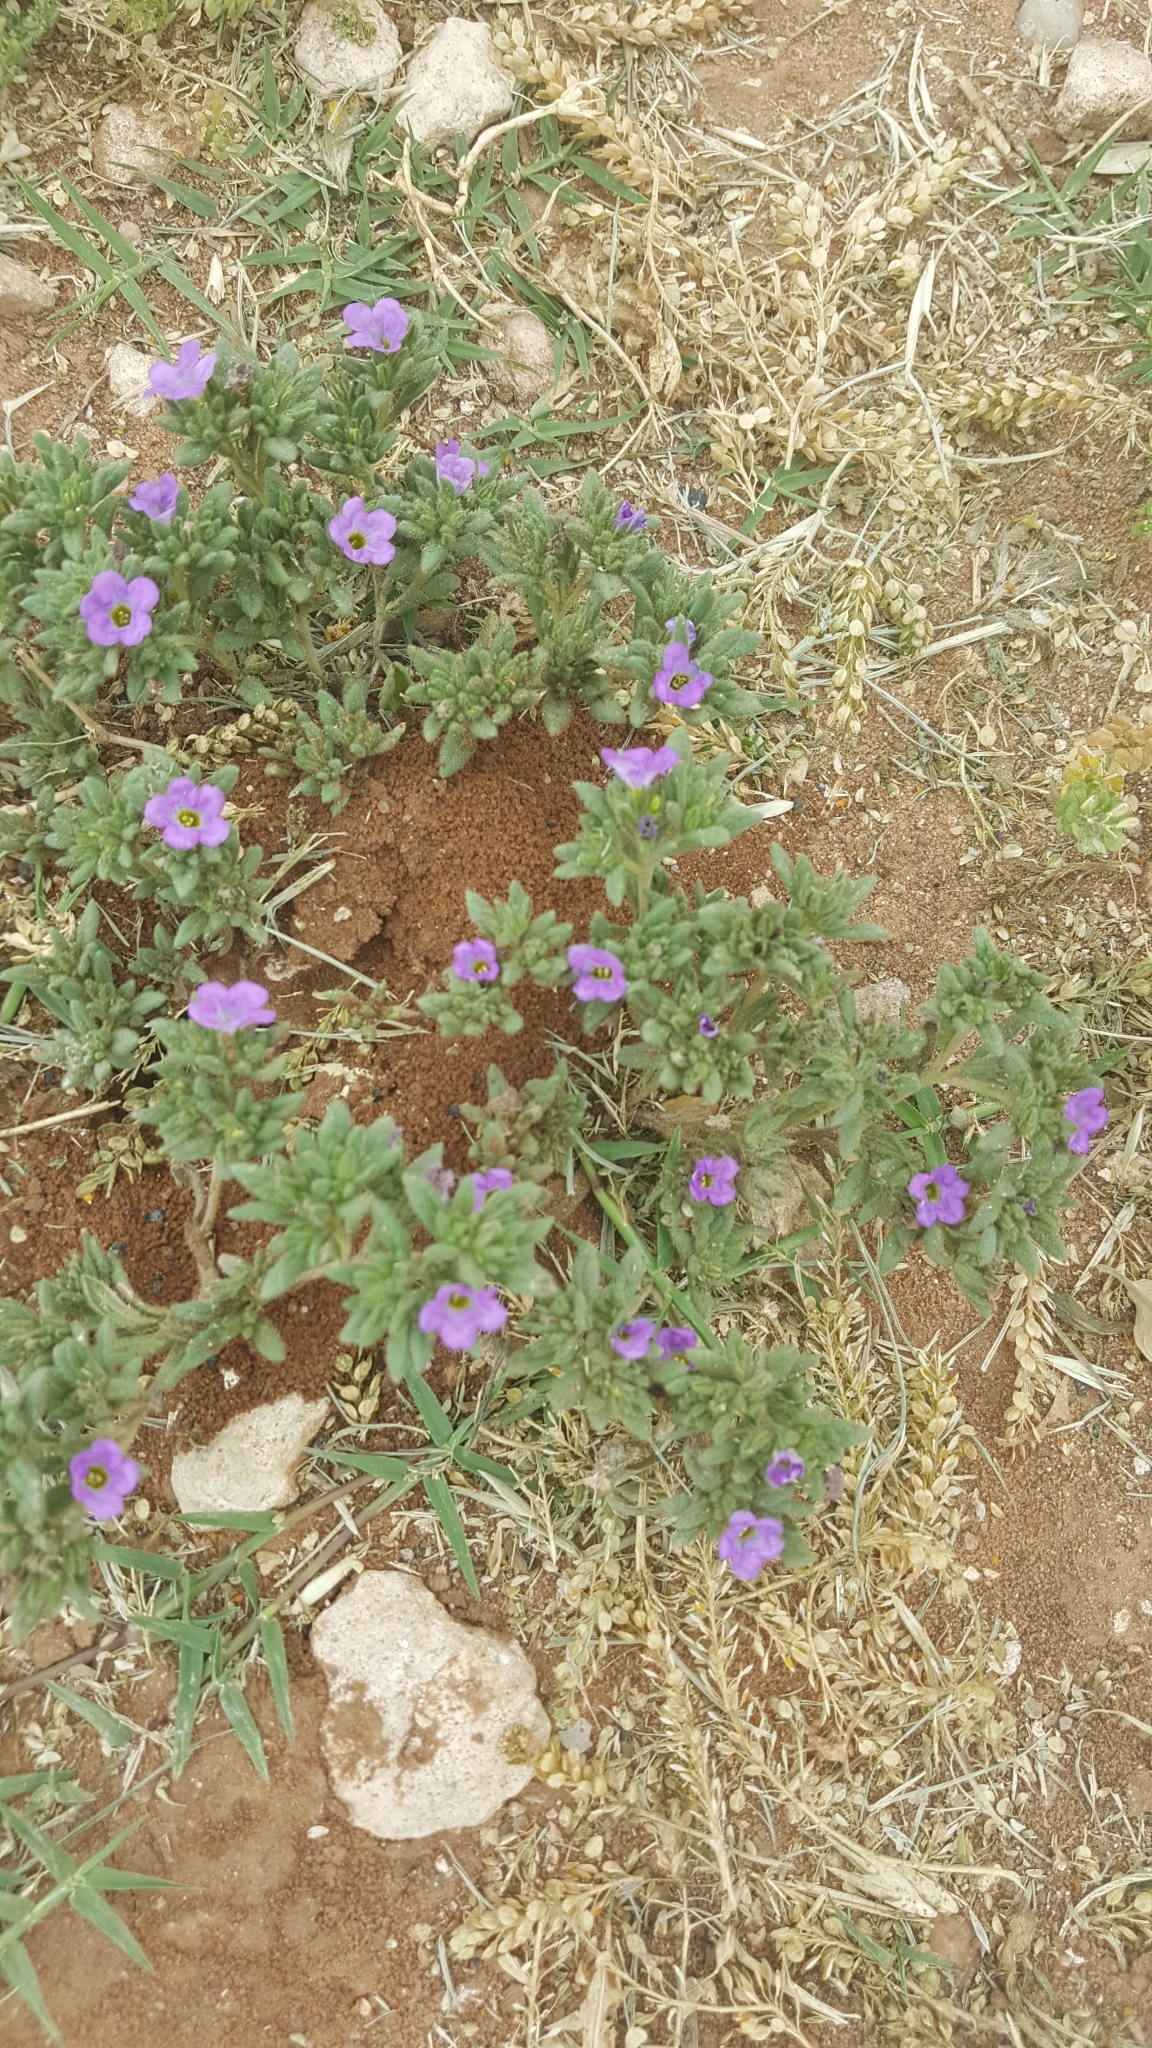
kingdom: Plantae
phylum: Tracheophyta
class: Magnoliopsida
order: Boraginales
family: Namaceae
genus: Nama
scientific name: Nama hispida
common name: Bristly nama
